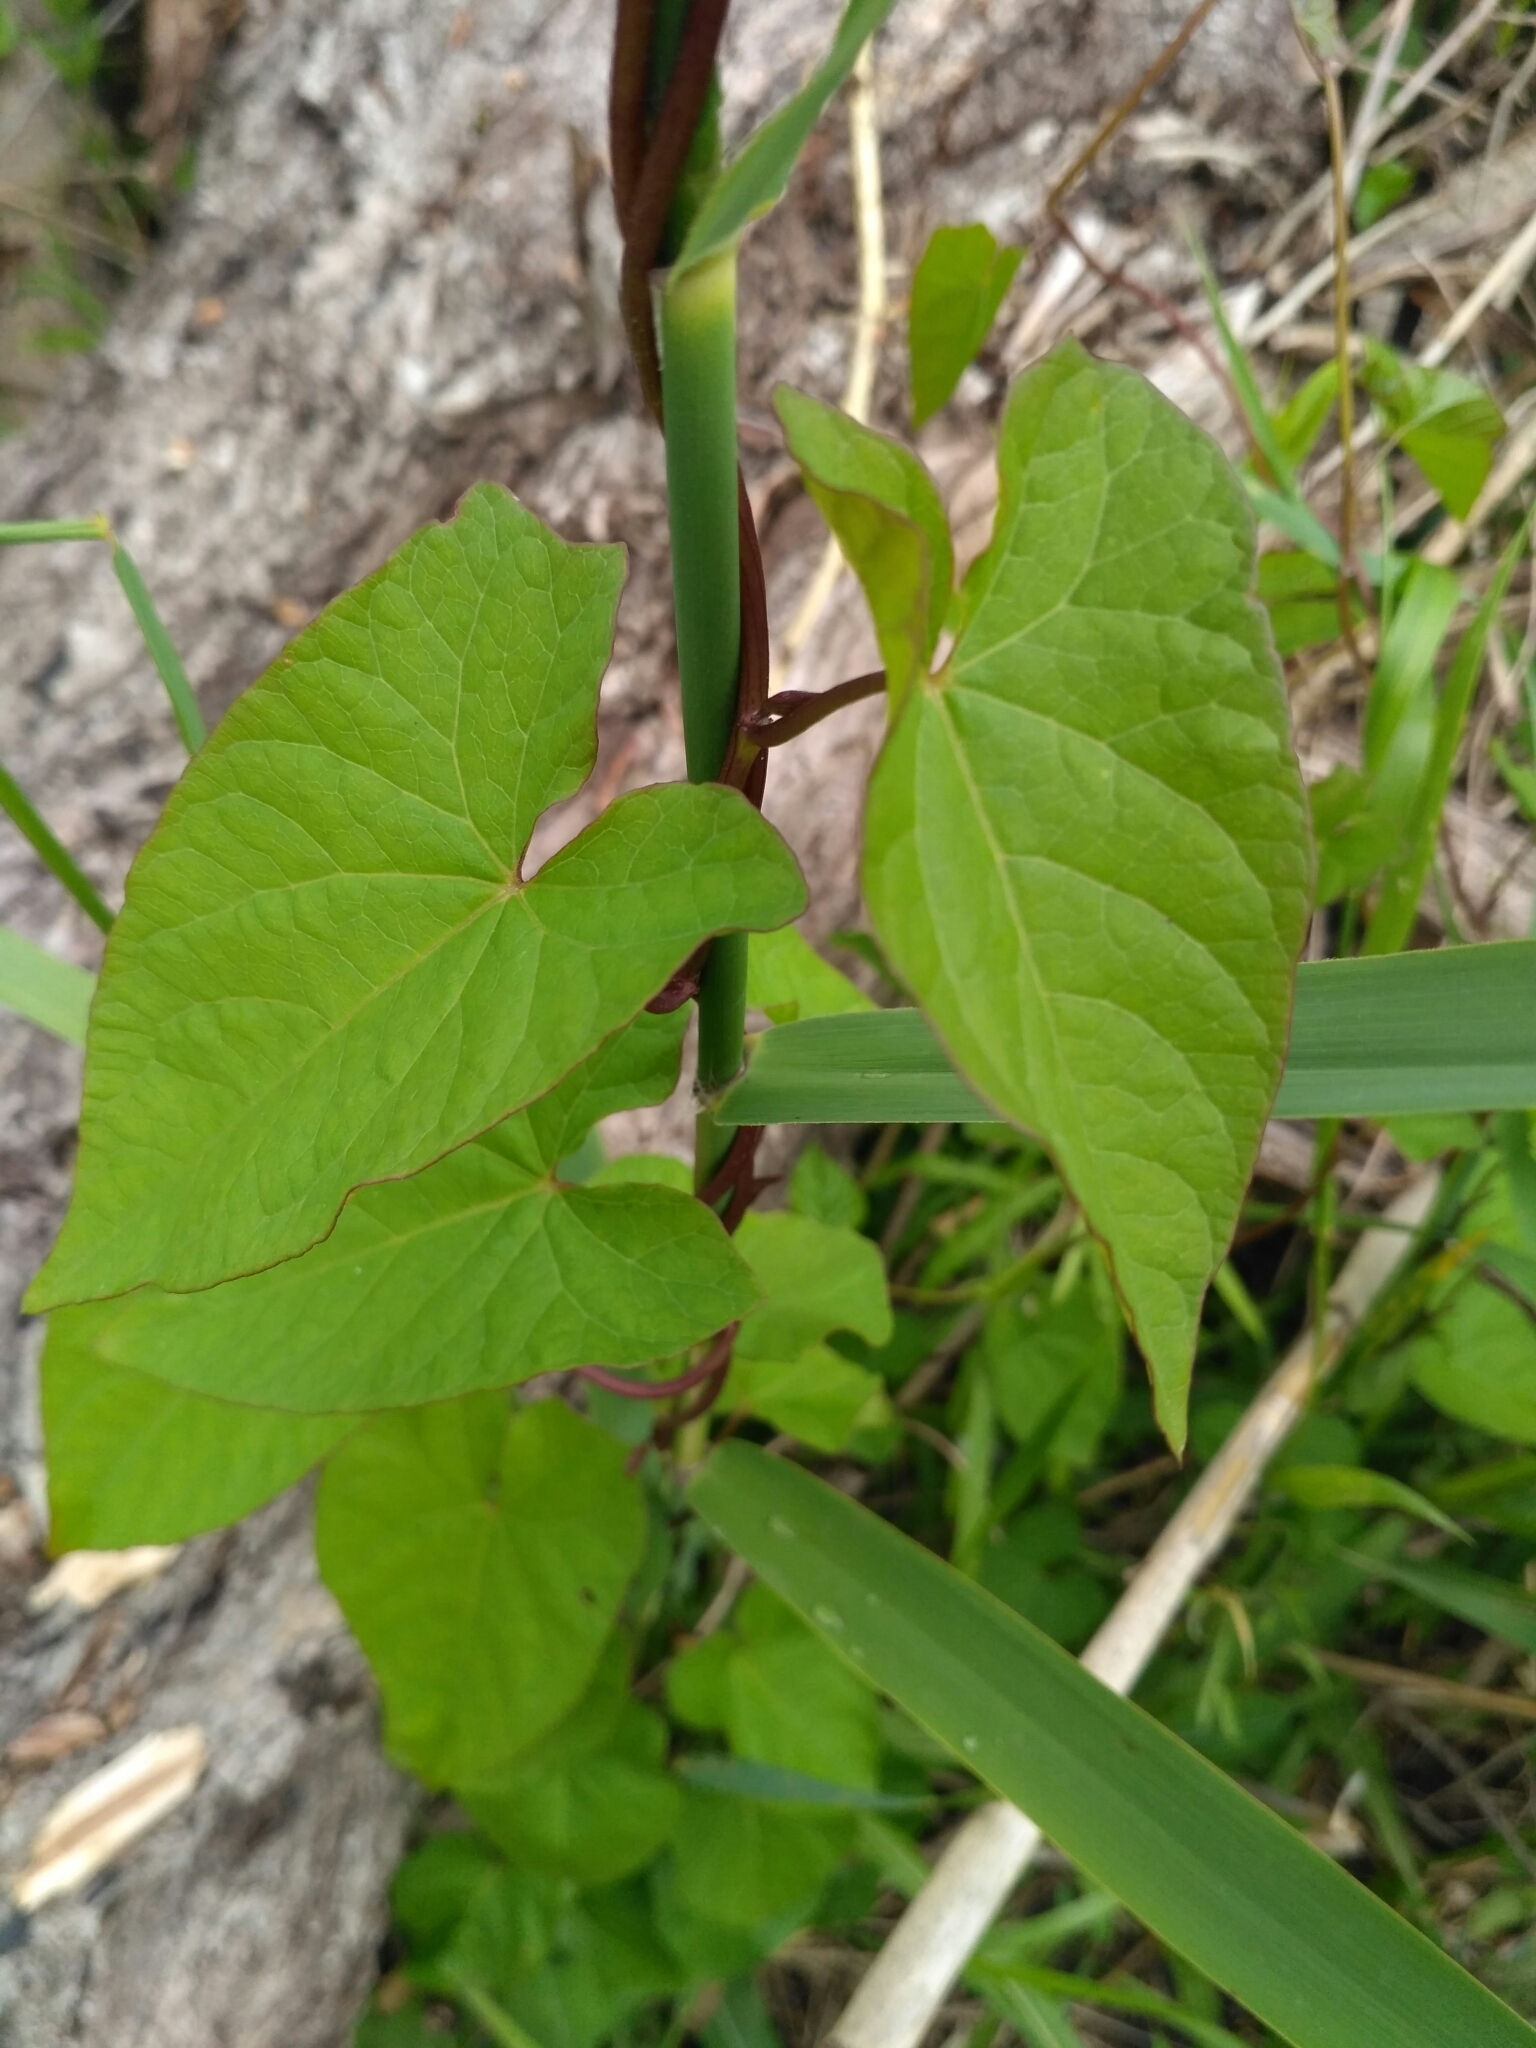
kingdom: Plantae
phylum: Tracheophyta
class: Magnoliopsida
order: Solanales
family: Convolvulaceae
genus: Calystegia
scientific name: Calystegia sepium
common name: Hedge bindweed
